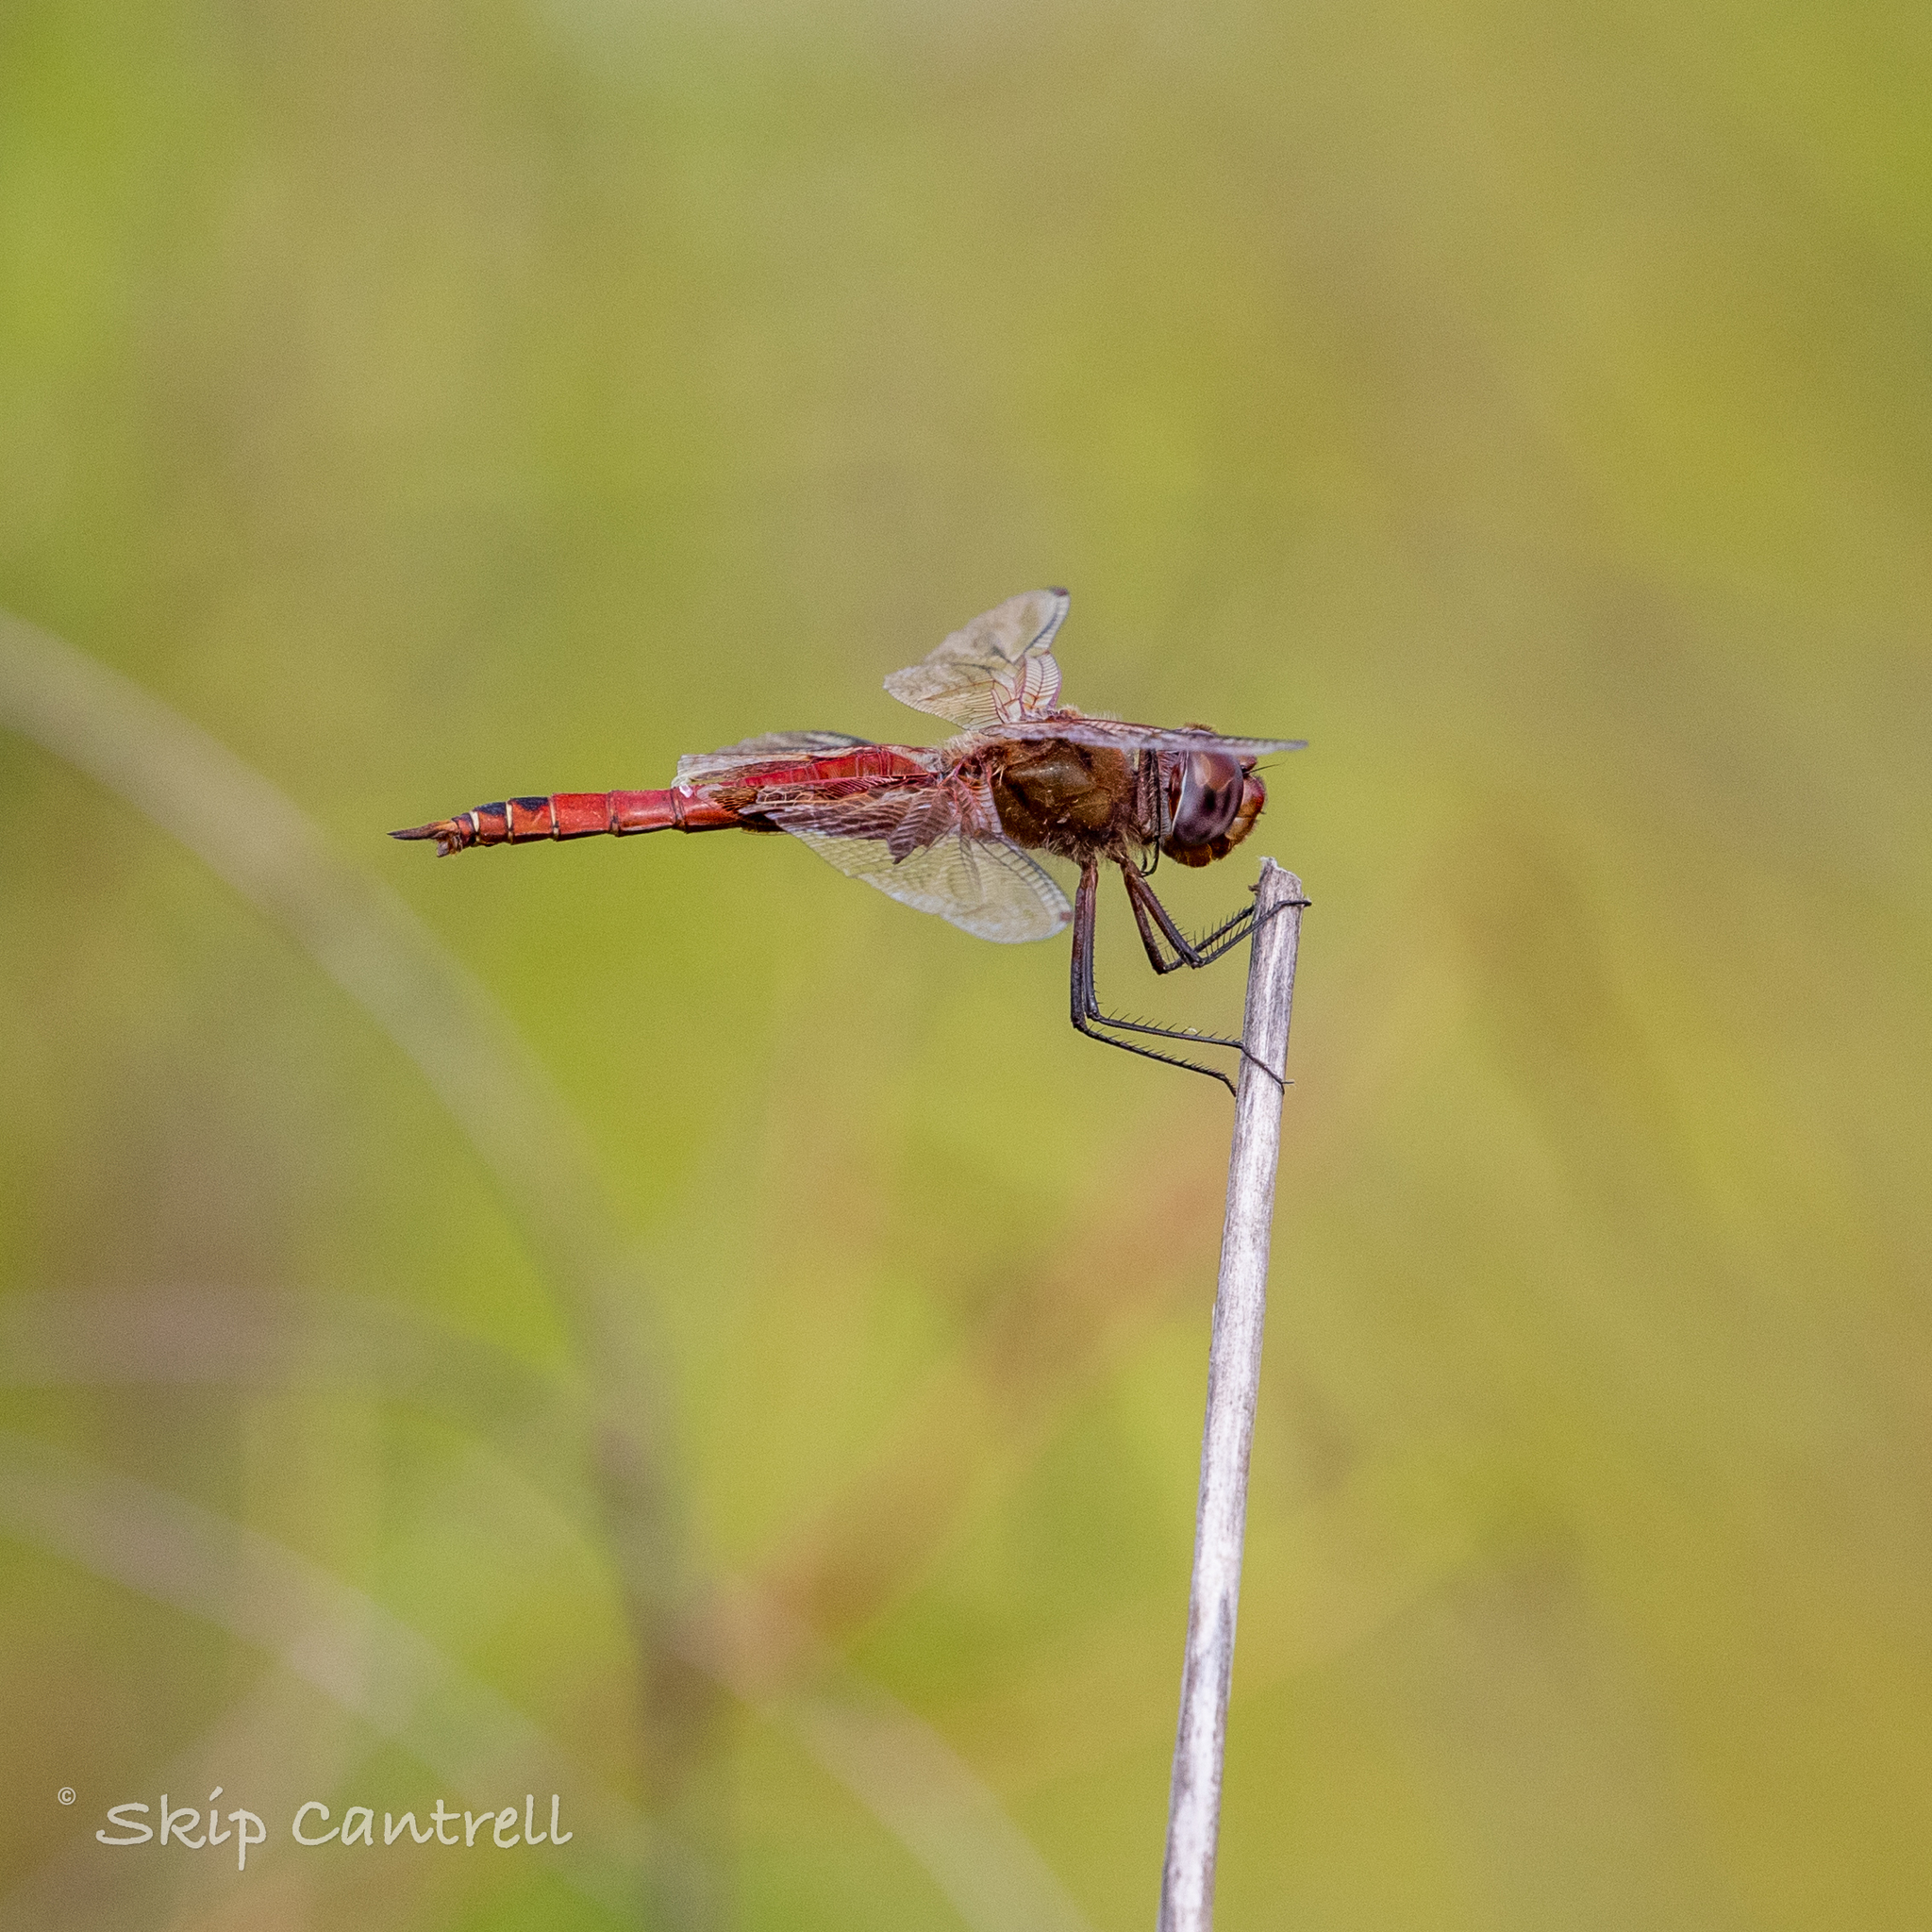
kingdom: Animalia
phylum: Arthropoda
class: Insecta
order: Odonata
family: Libellulidae
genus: Tramea
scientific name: Tramea onusta
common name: Red saddlebags
